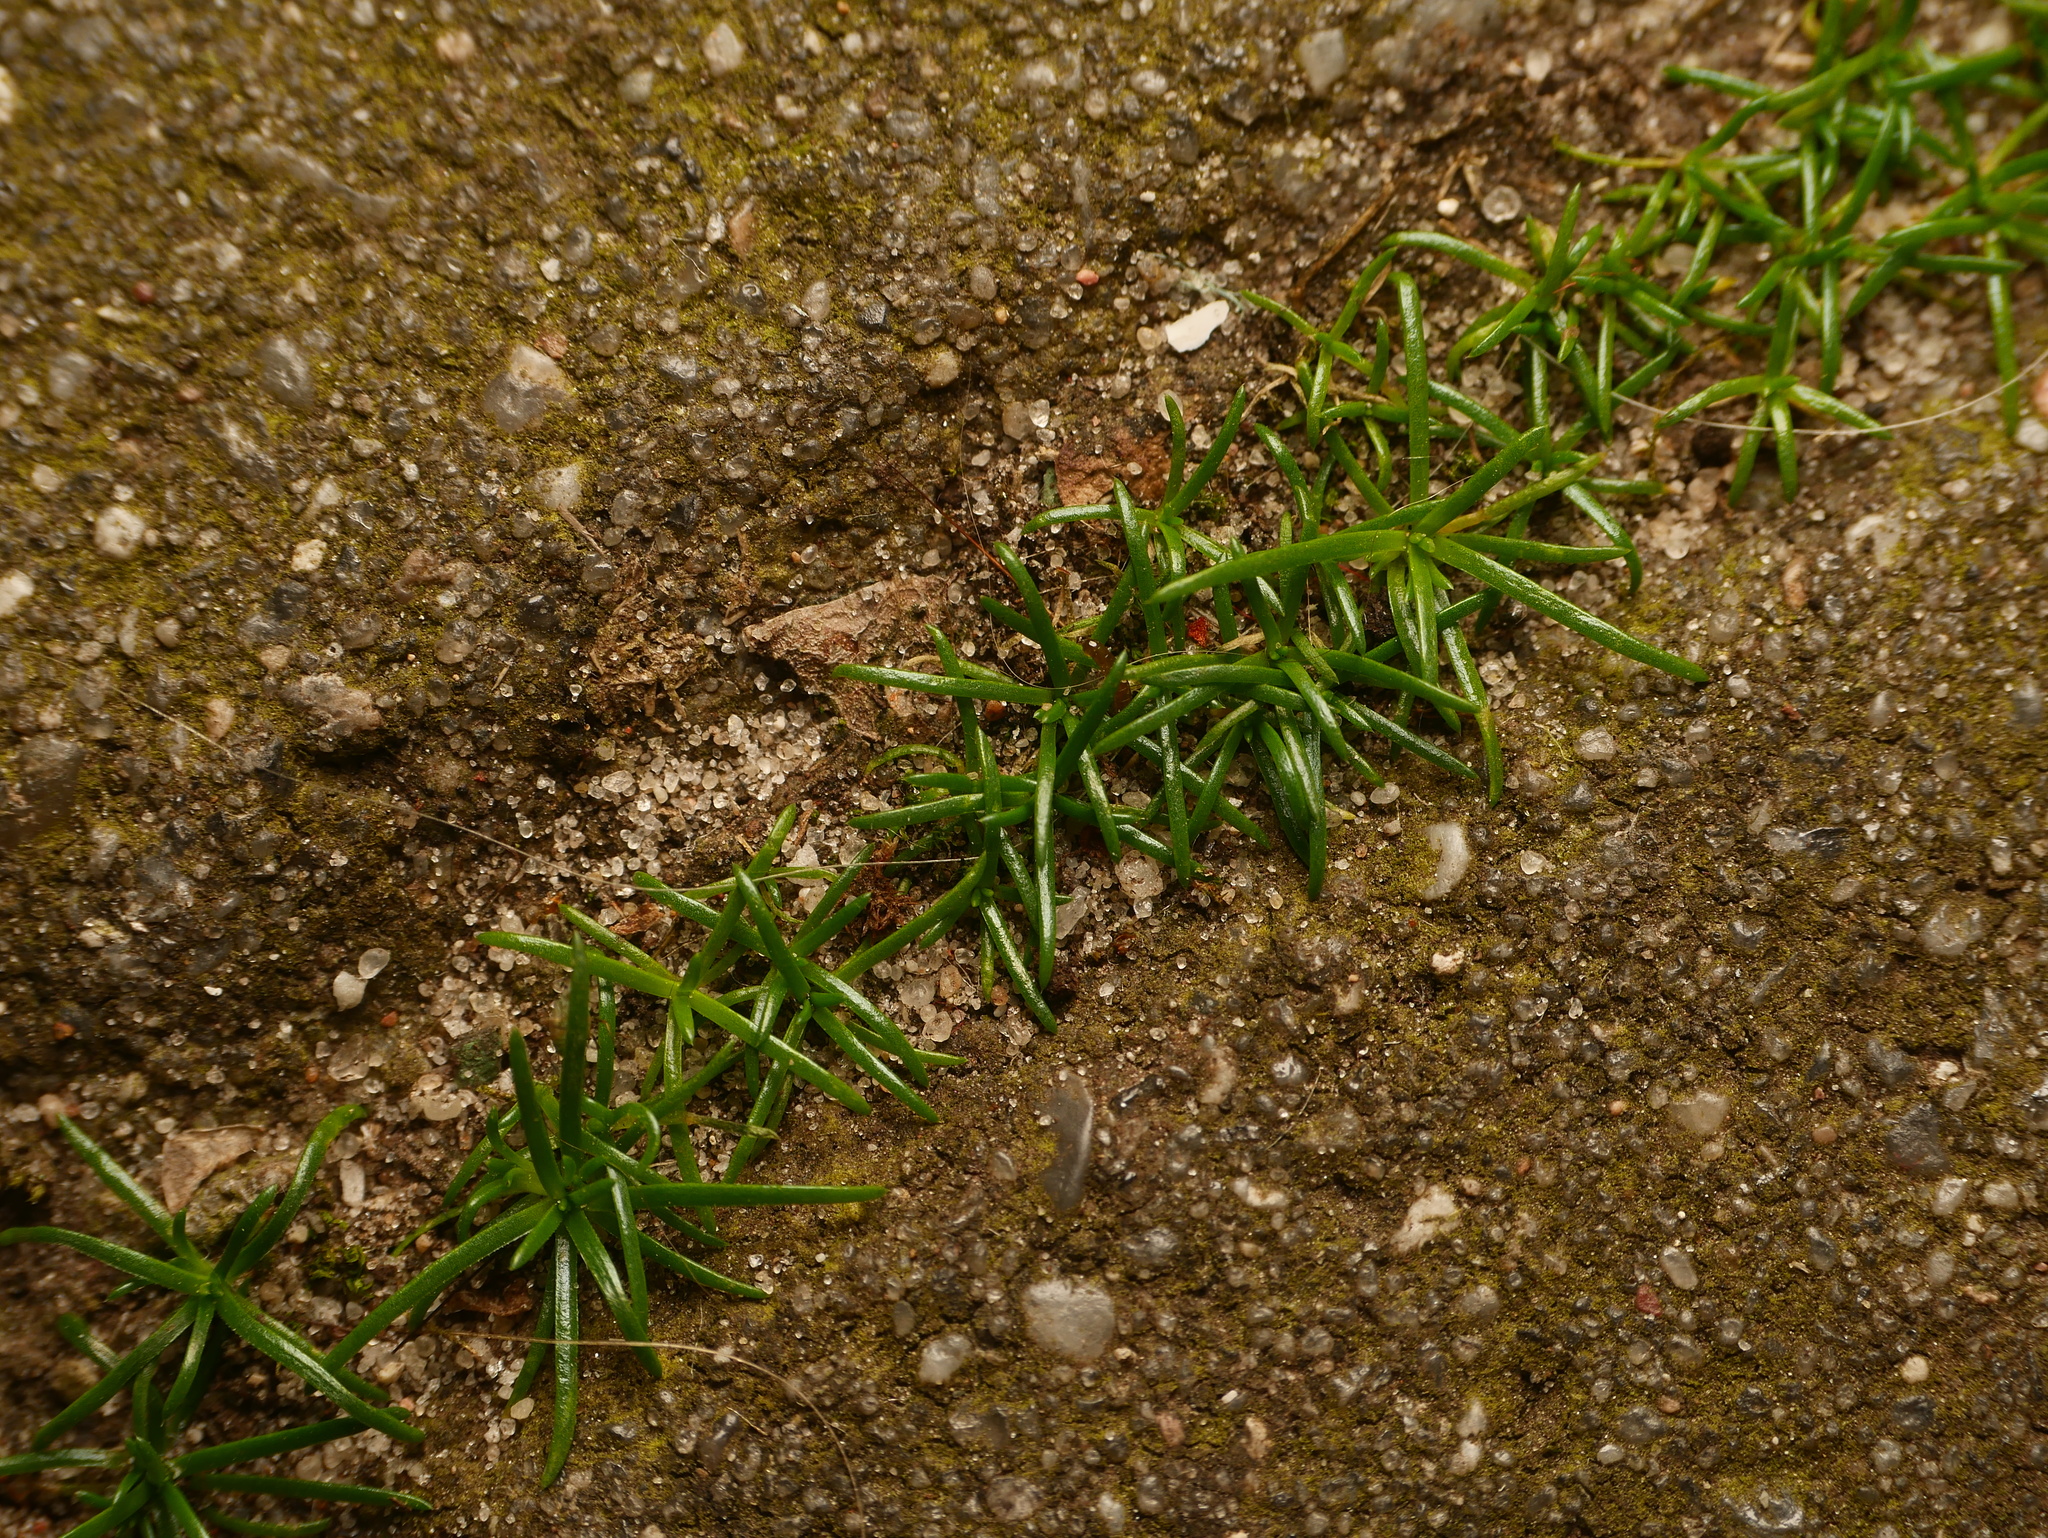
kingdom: Plantae
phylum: Tracheophyta
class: Magnoliopsida
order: Caryophyllales
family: Caryophyllaceae
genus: Sagina
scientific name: Sagina procumbens
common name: Procumbent pearlwort
